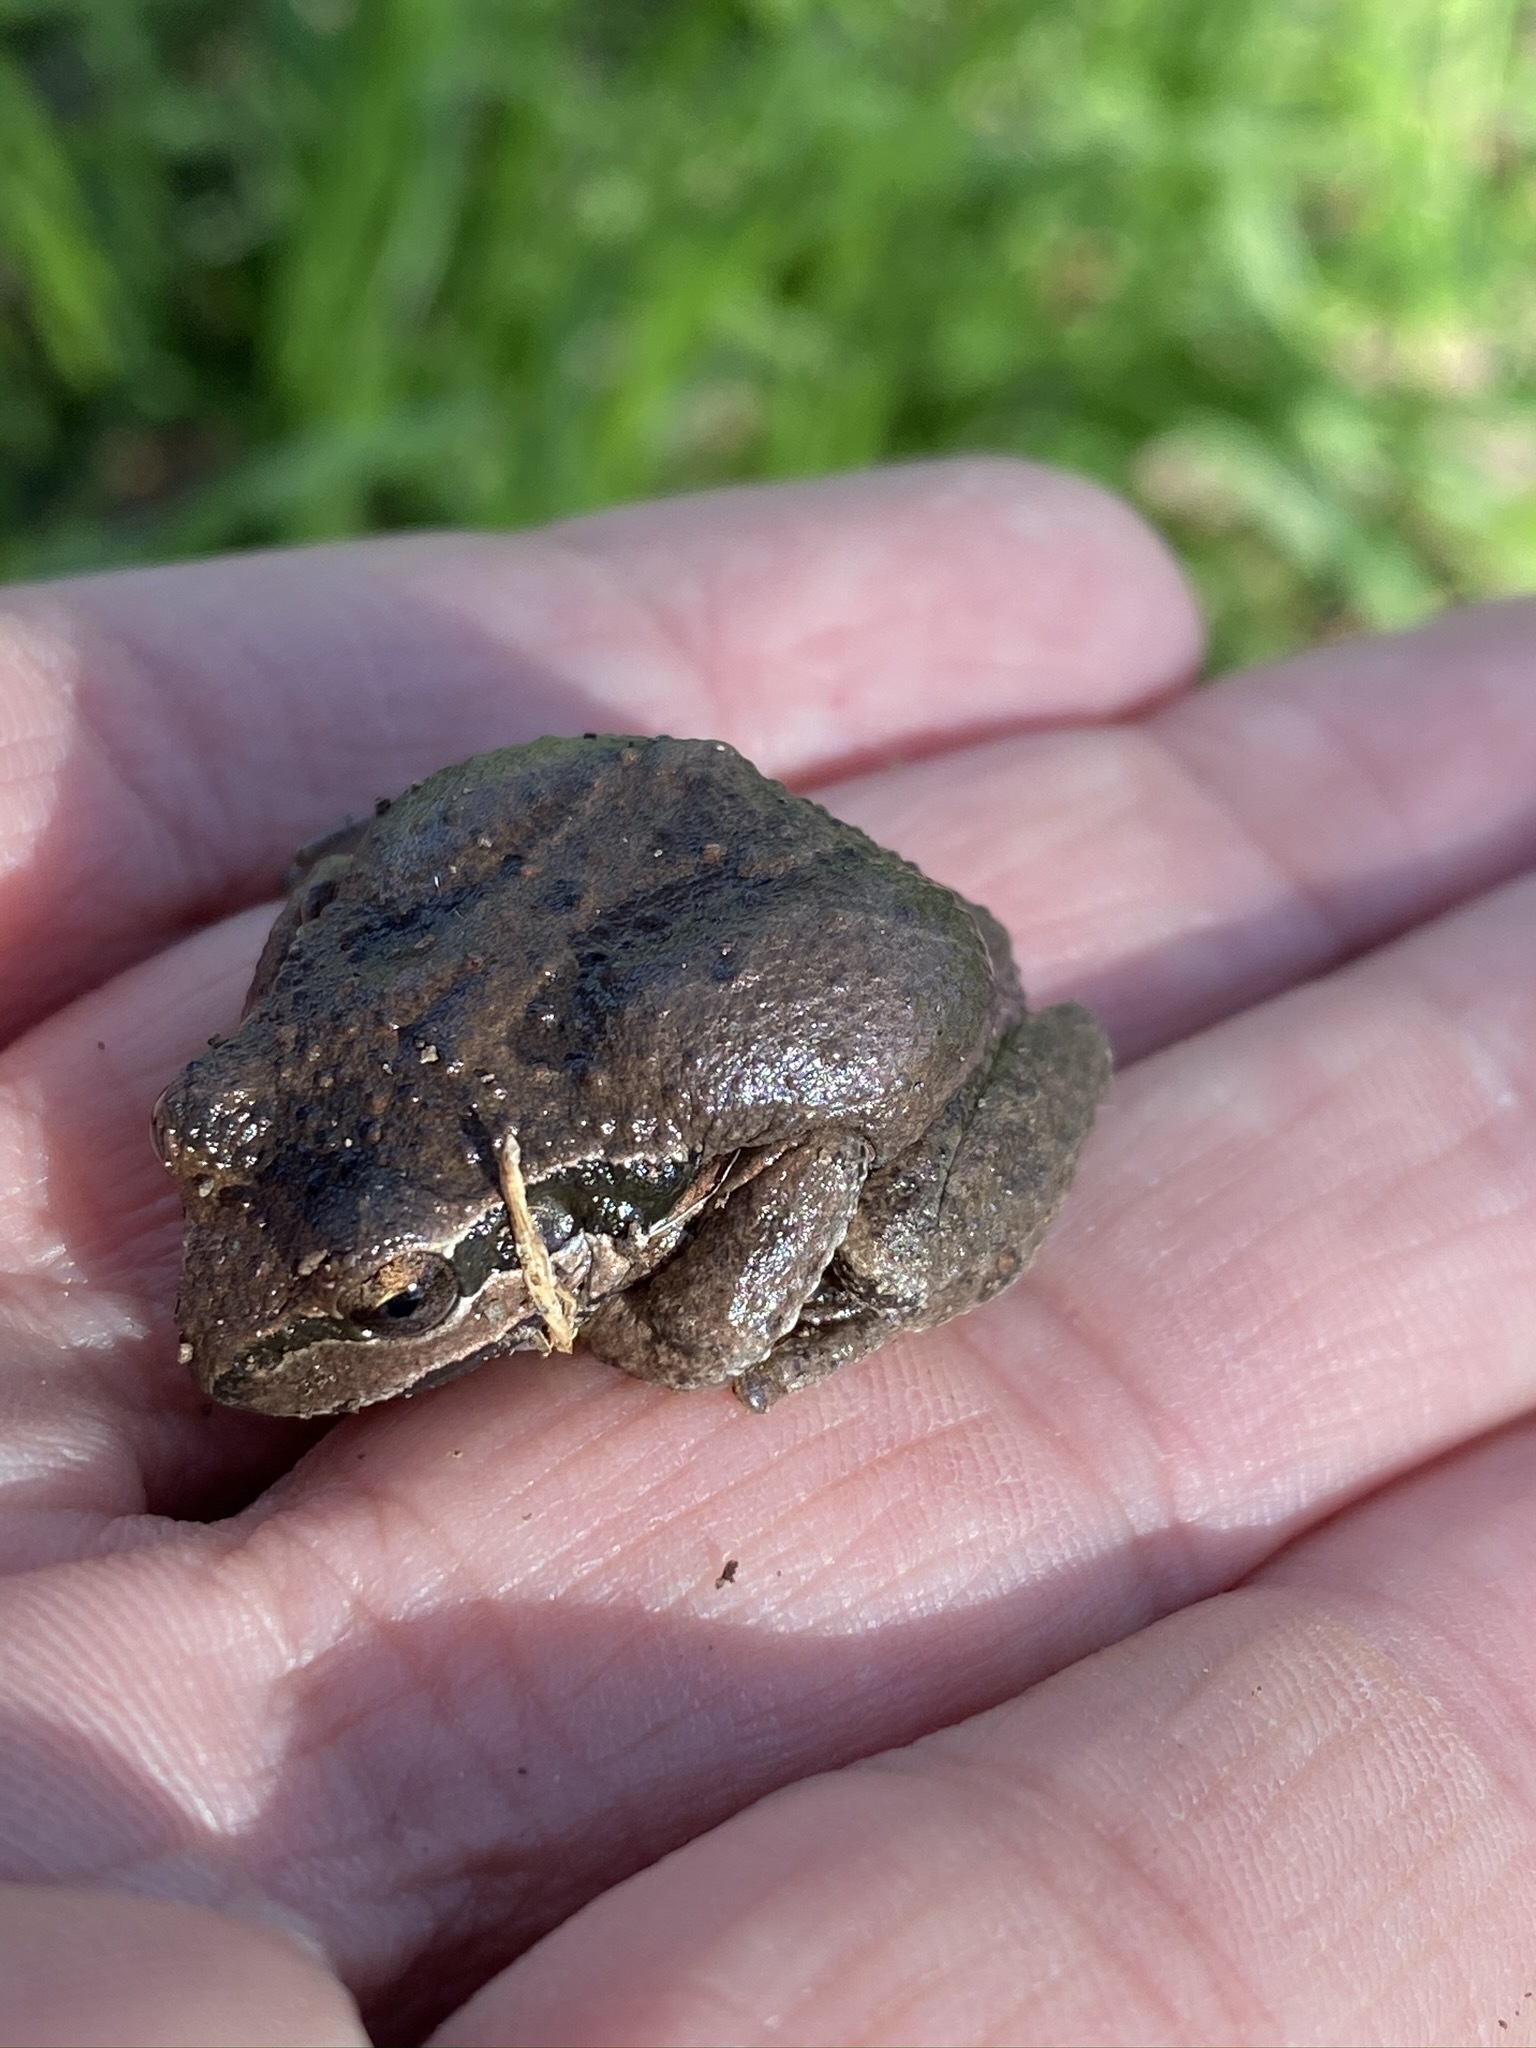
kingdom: Animalia
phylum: Chordata
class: Amphibia
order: Anura
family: Hylidae
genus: Pseudacris
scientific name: Pseudacris regilla
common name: Pacific chorus frog
